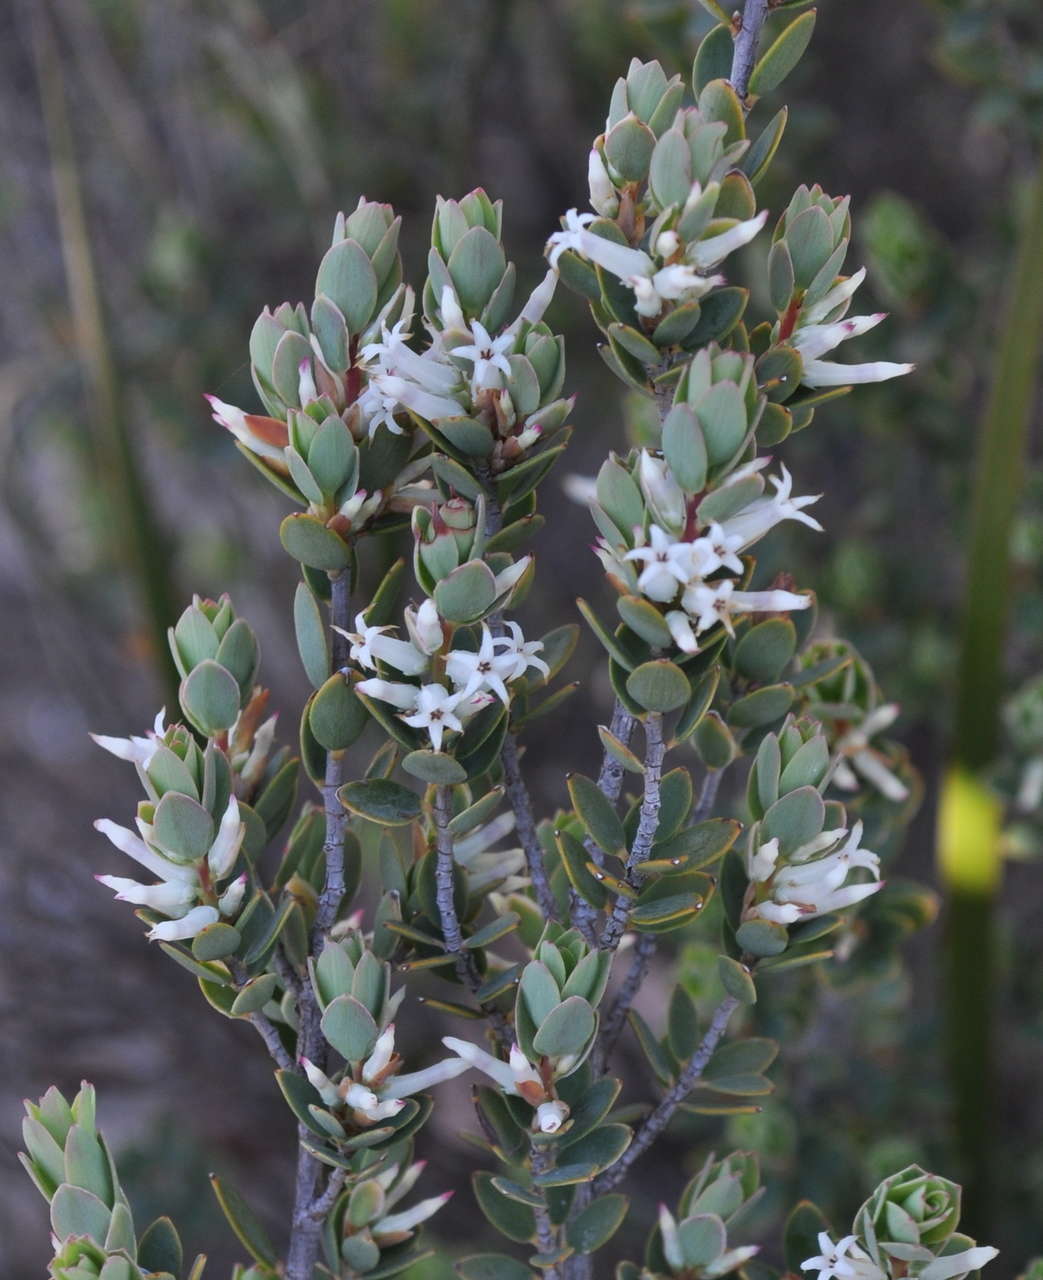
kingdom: Plantae
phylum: Tracheophyta
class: Magnoliopsida
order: Ericales
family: Ericaceae
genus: Brachyloma
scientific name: Brachyloma daphnoides
